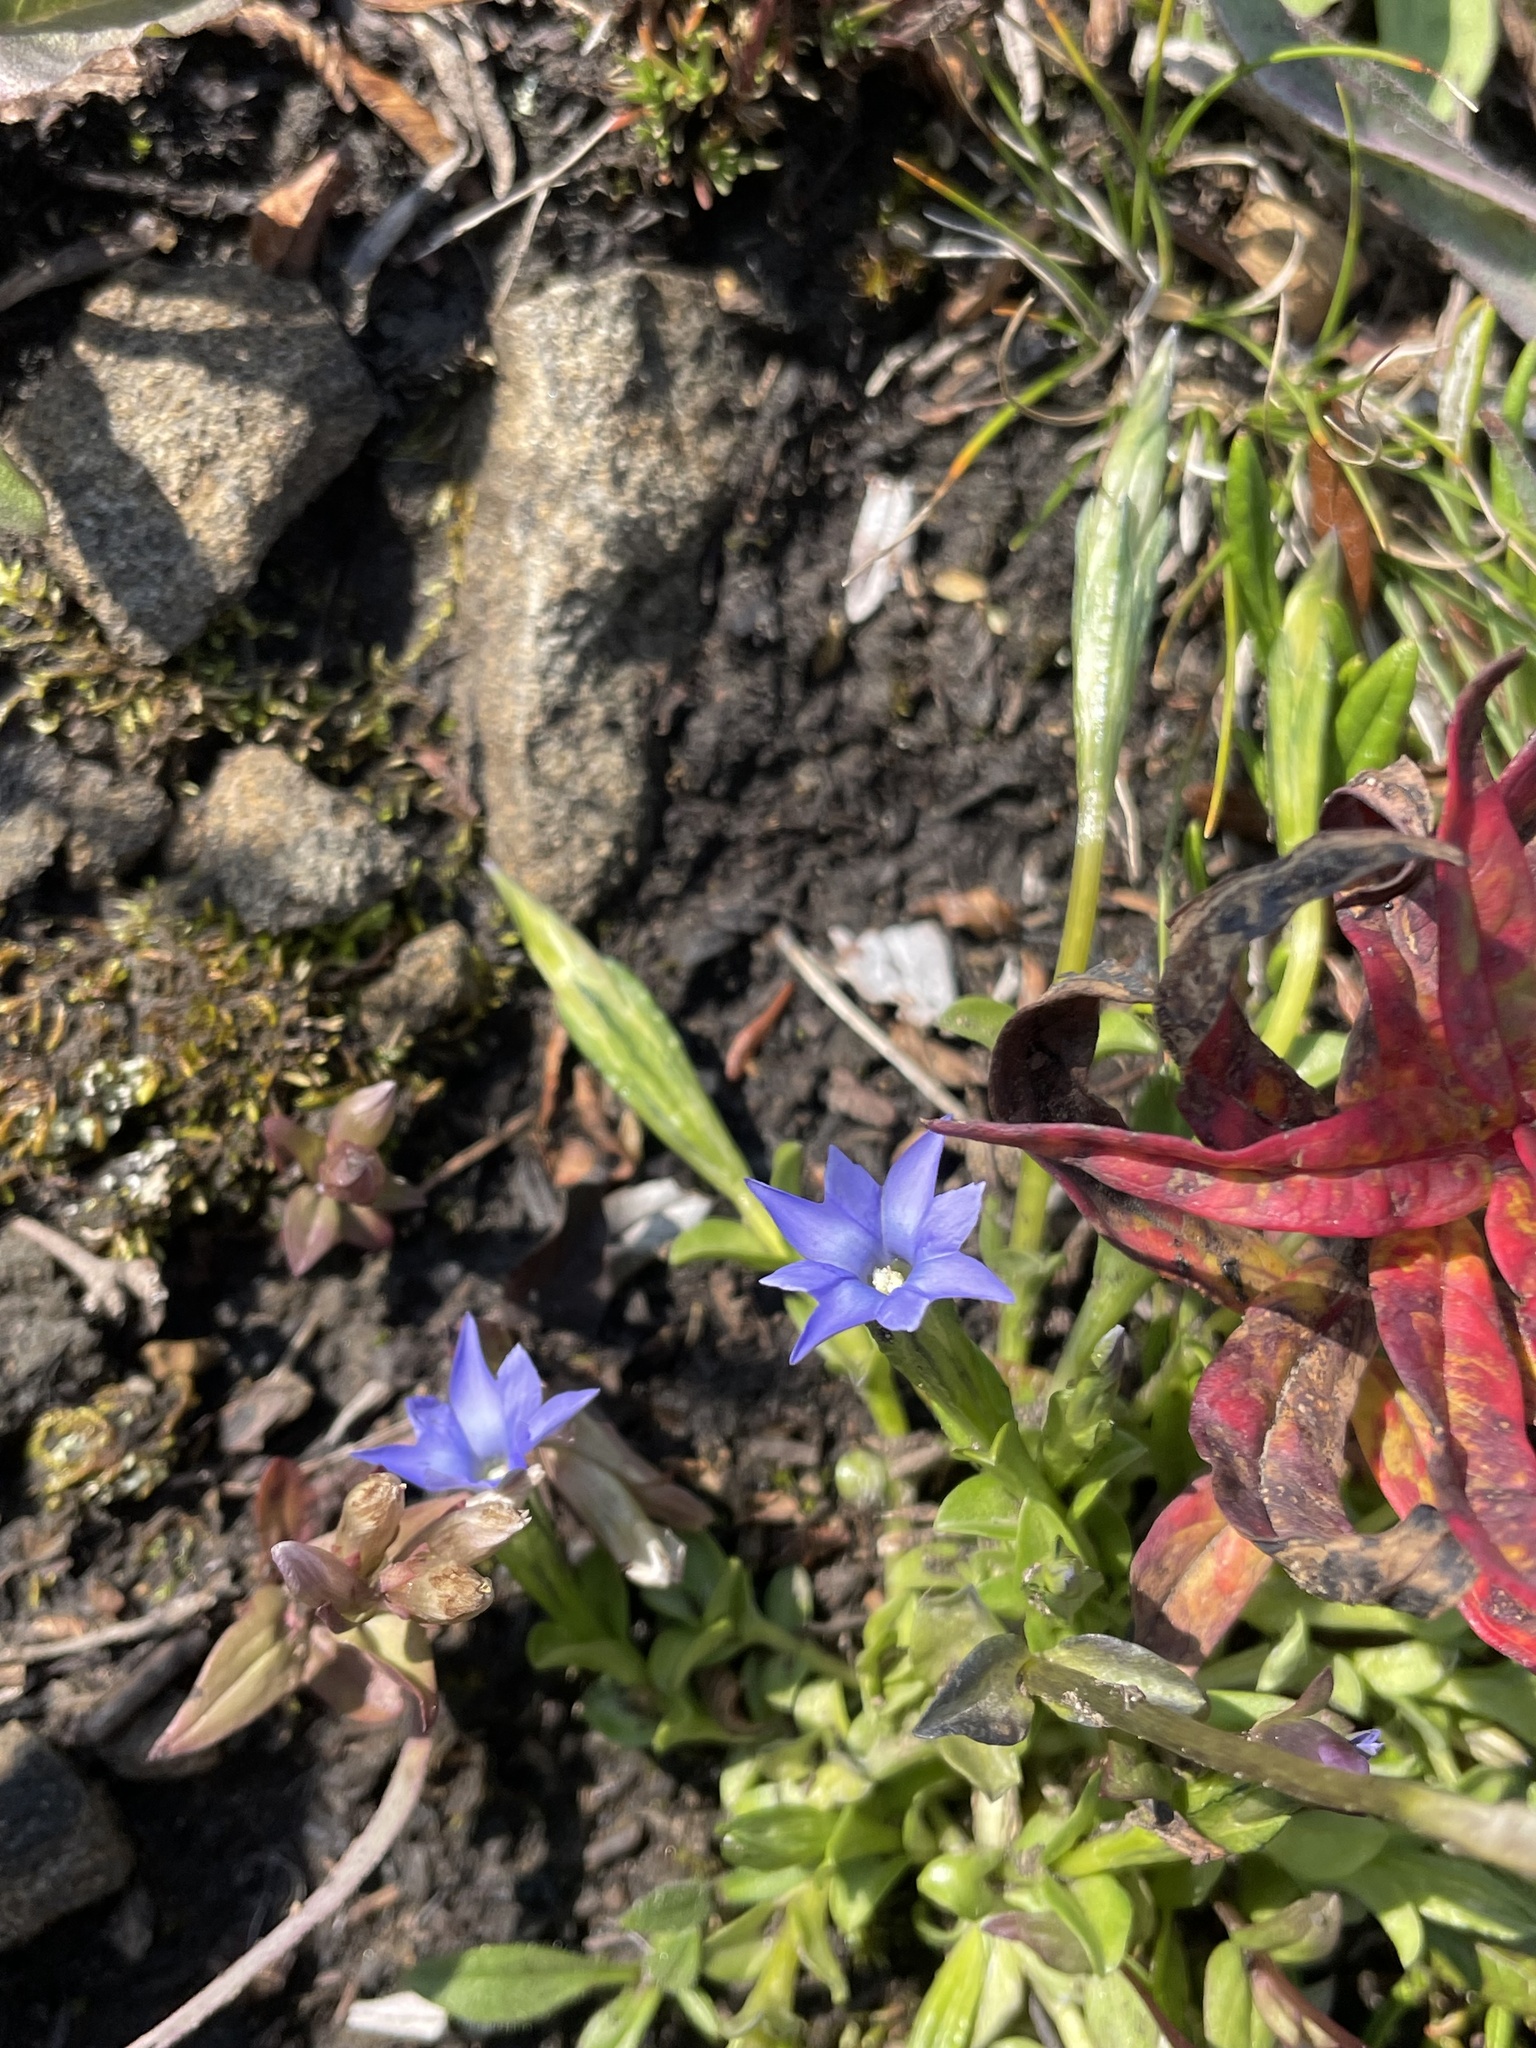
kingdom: Plantae
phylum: Tracheophyta
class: Magnoliopsida
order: Gentianales
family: Gentianaceae
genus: Gentiana
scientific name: Gentiana prostrata
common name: Moss gentian
